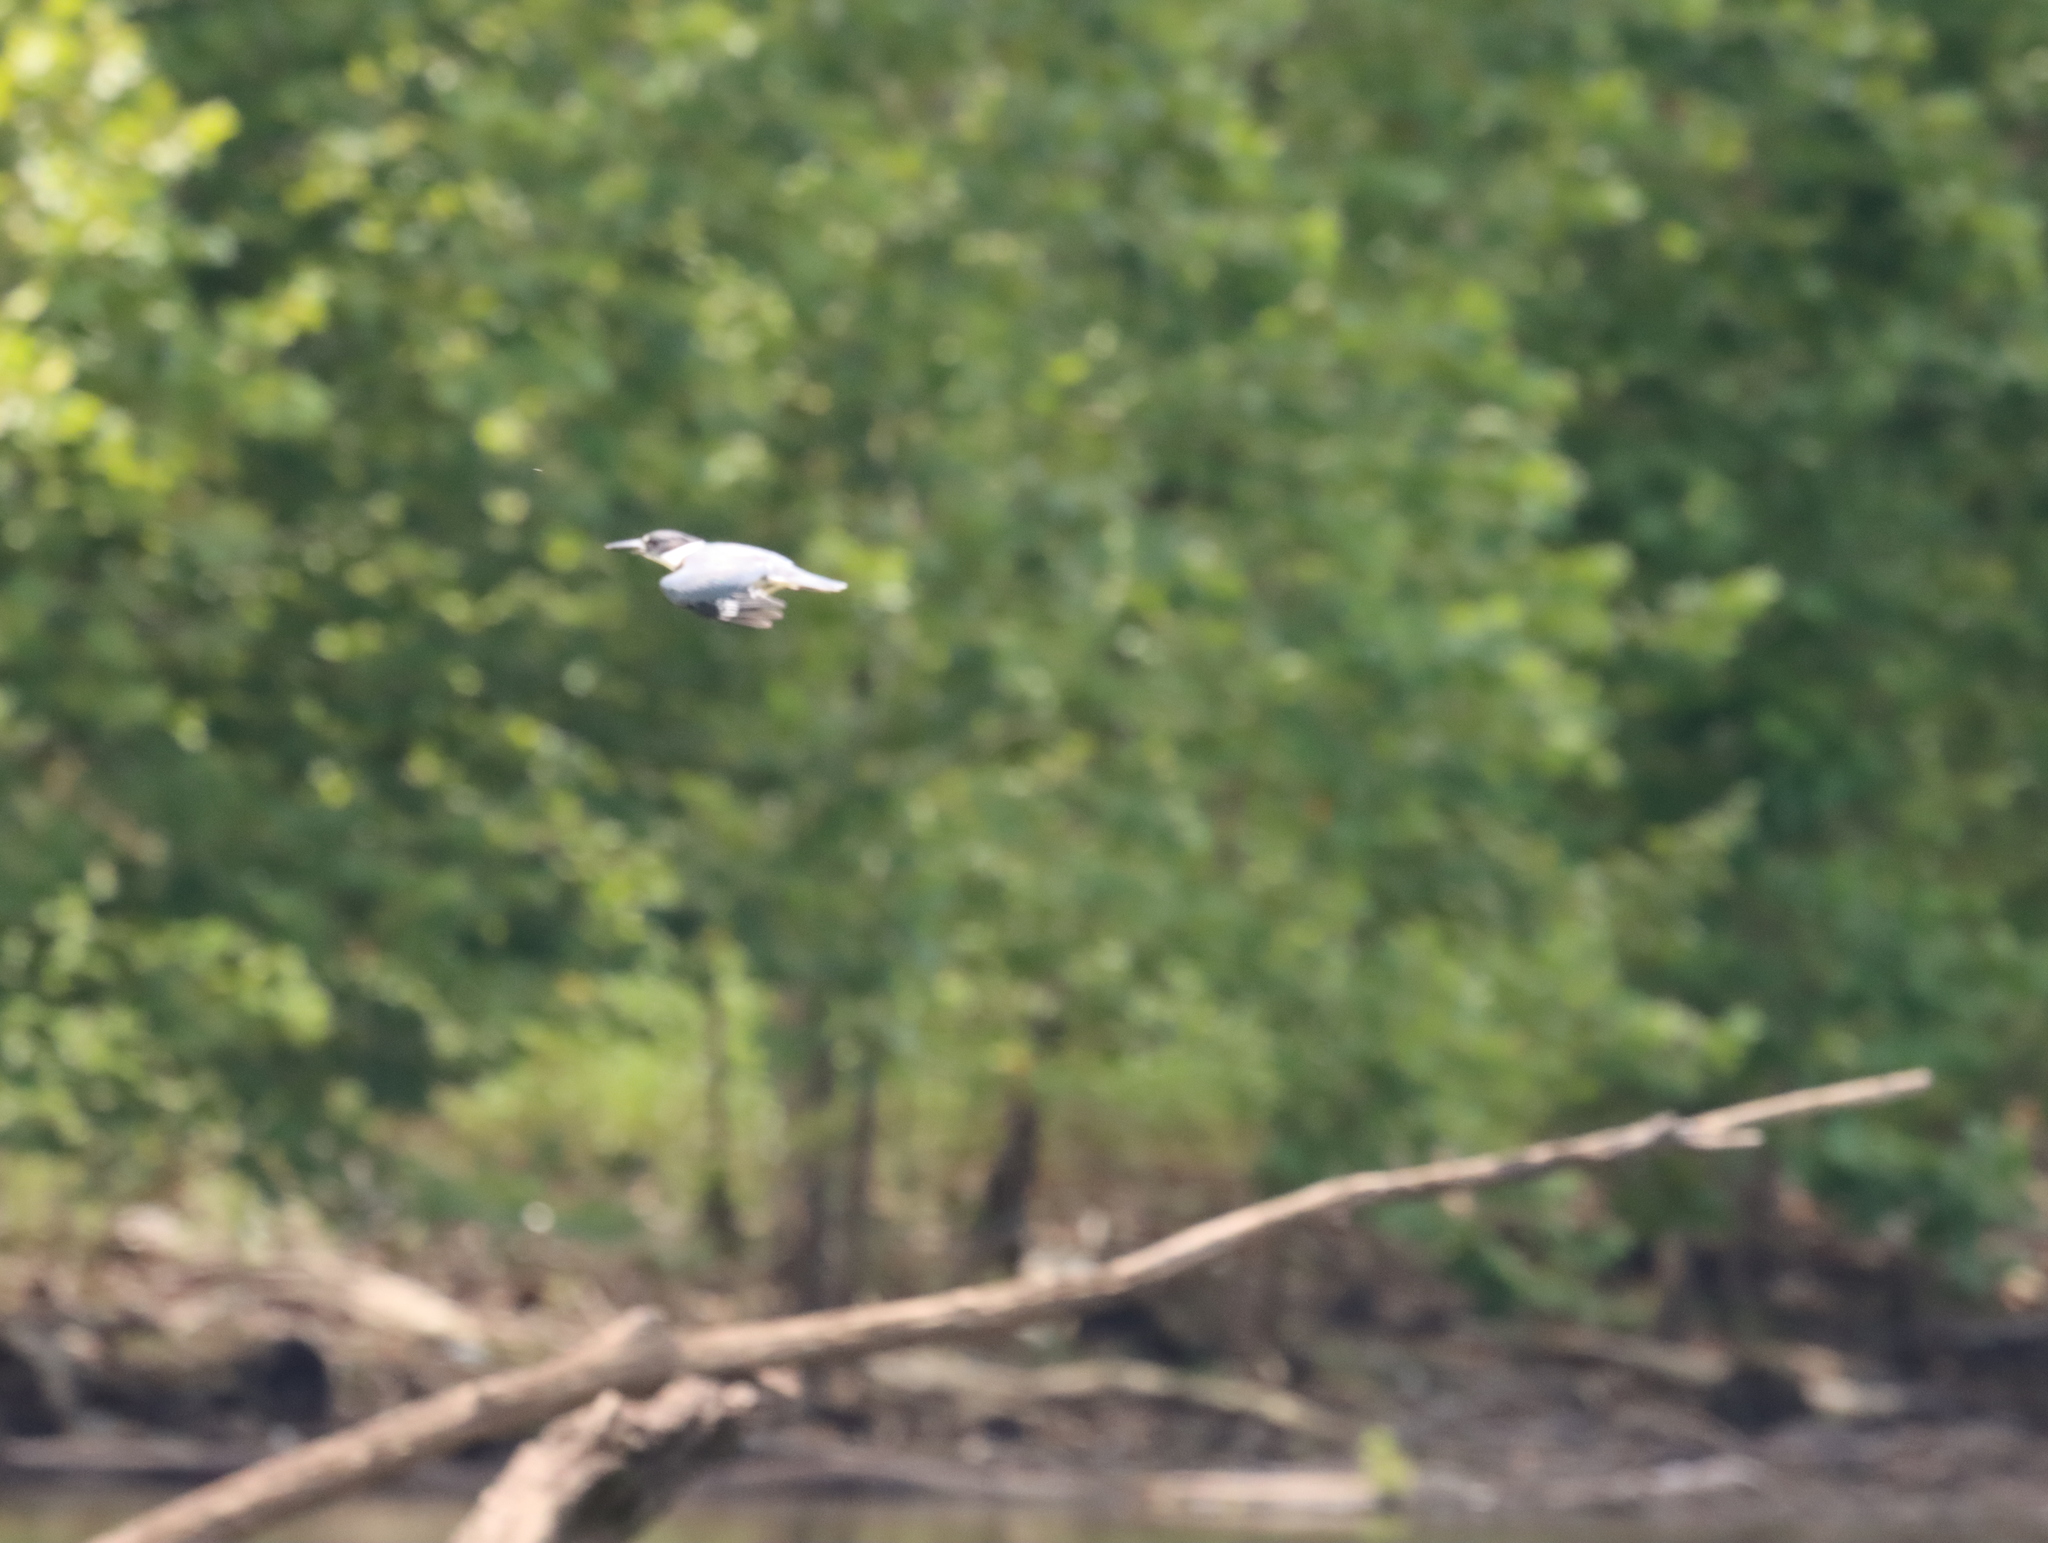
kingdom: Animalia
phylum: Chordata
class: Aves
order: Coraciiformes
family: Alcedinidae
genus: Megaceryle
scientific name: Megaceryle alcyon
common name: Belted kingfisher
